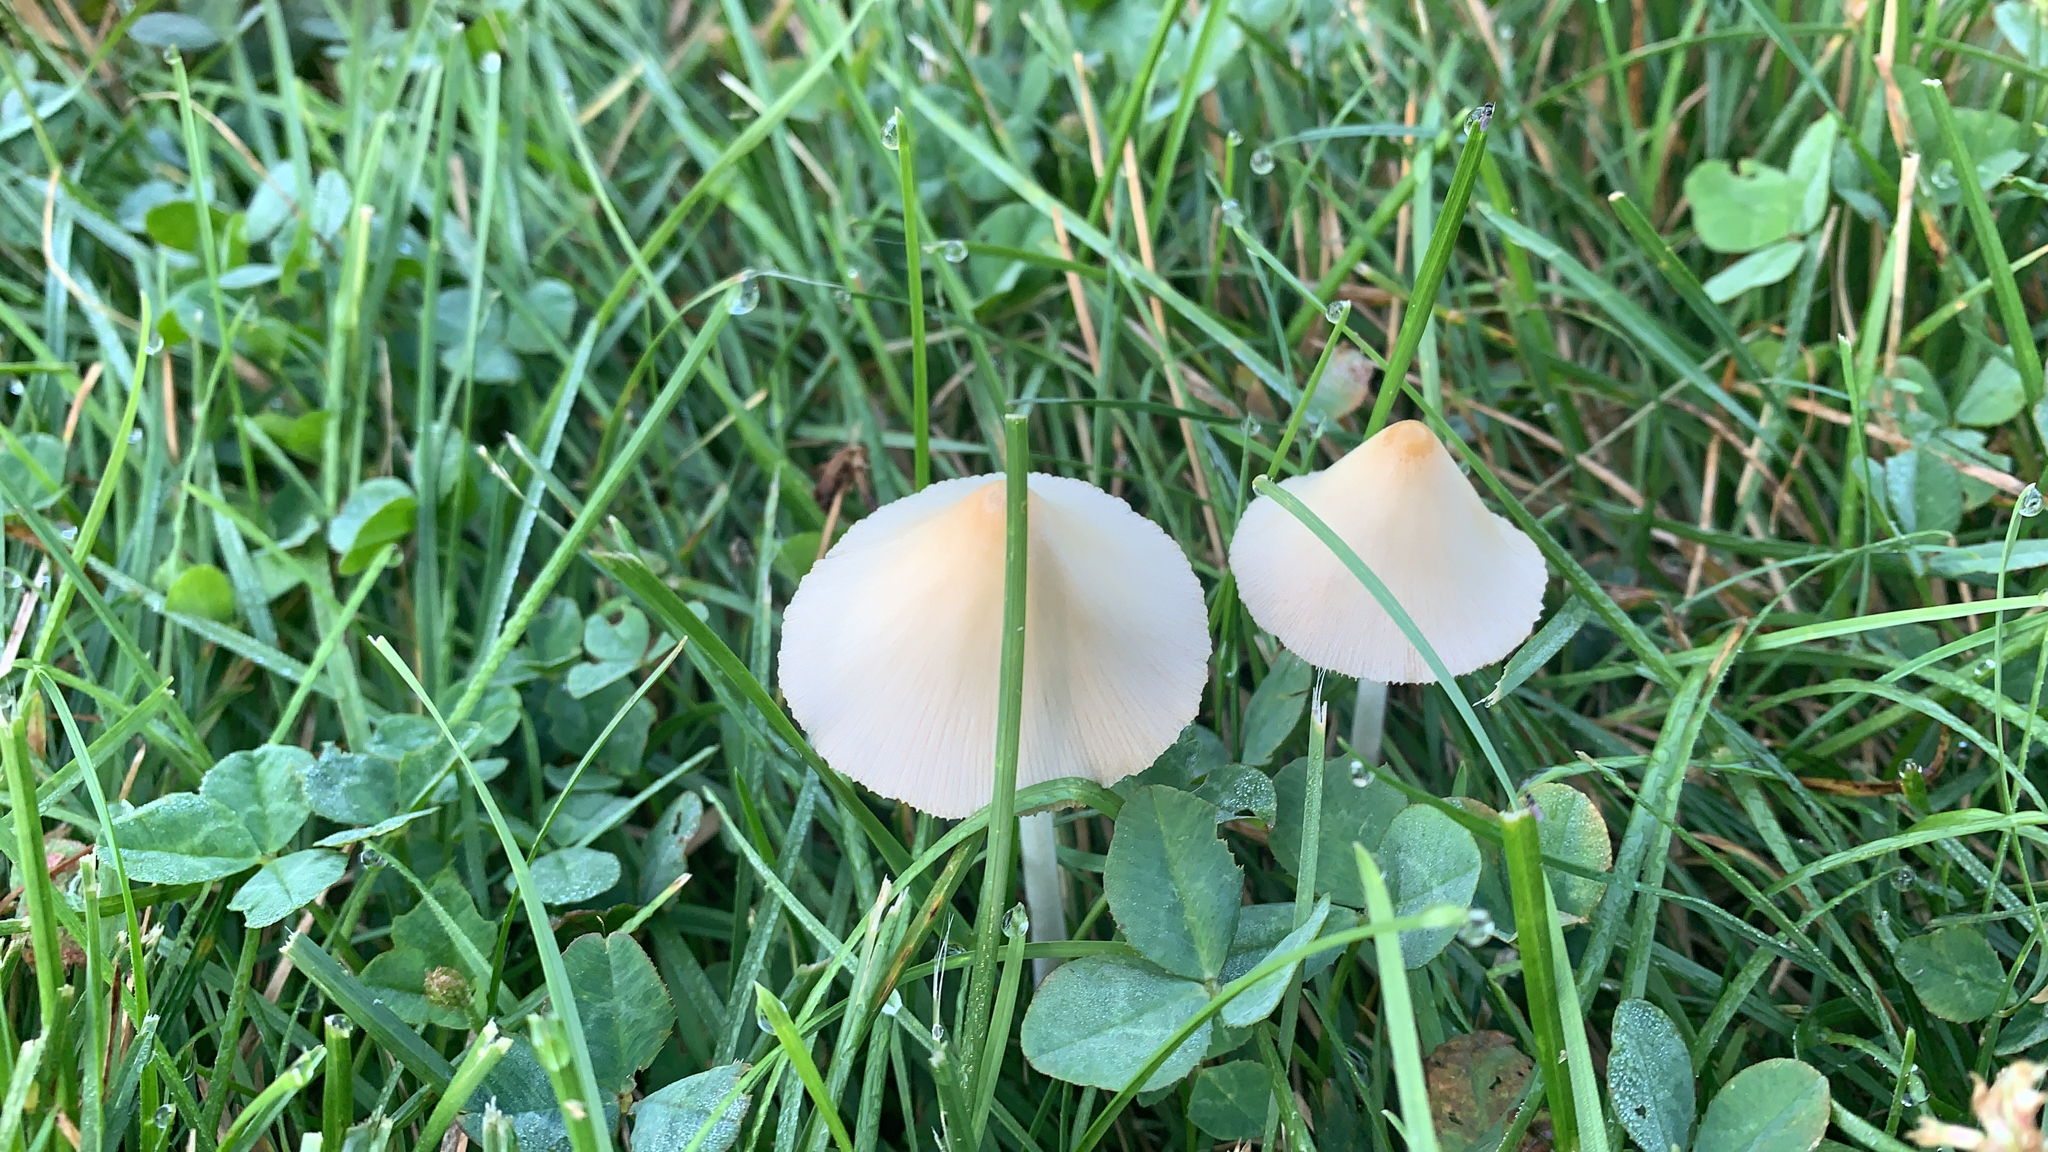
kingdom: Fungi
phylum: Basidiomycota
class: Agaricomycetes
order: Agaricales
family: Bolbitiaceae
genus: Conocybe
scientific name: Conocybe apala
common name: Milky conecap
